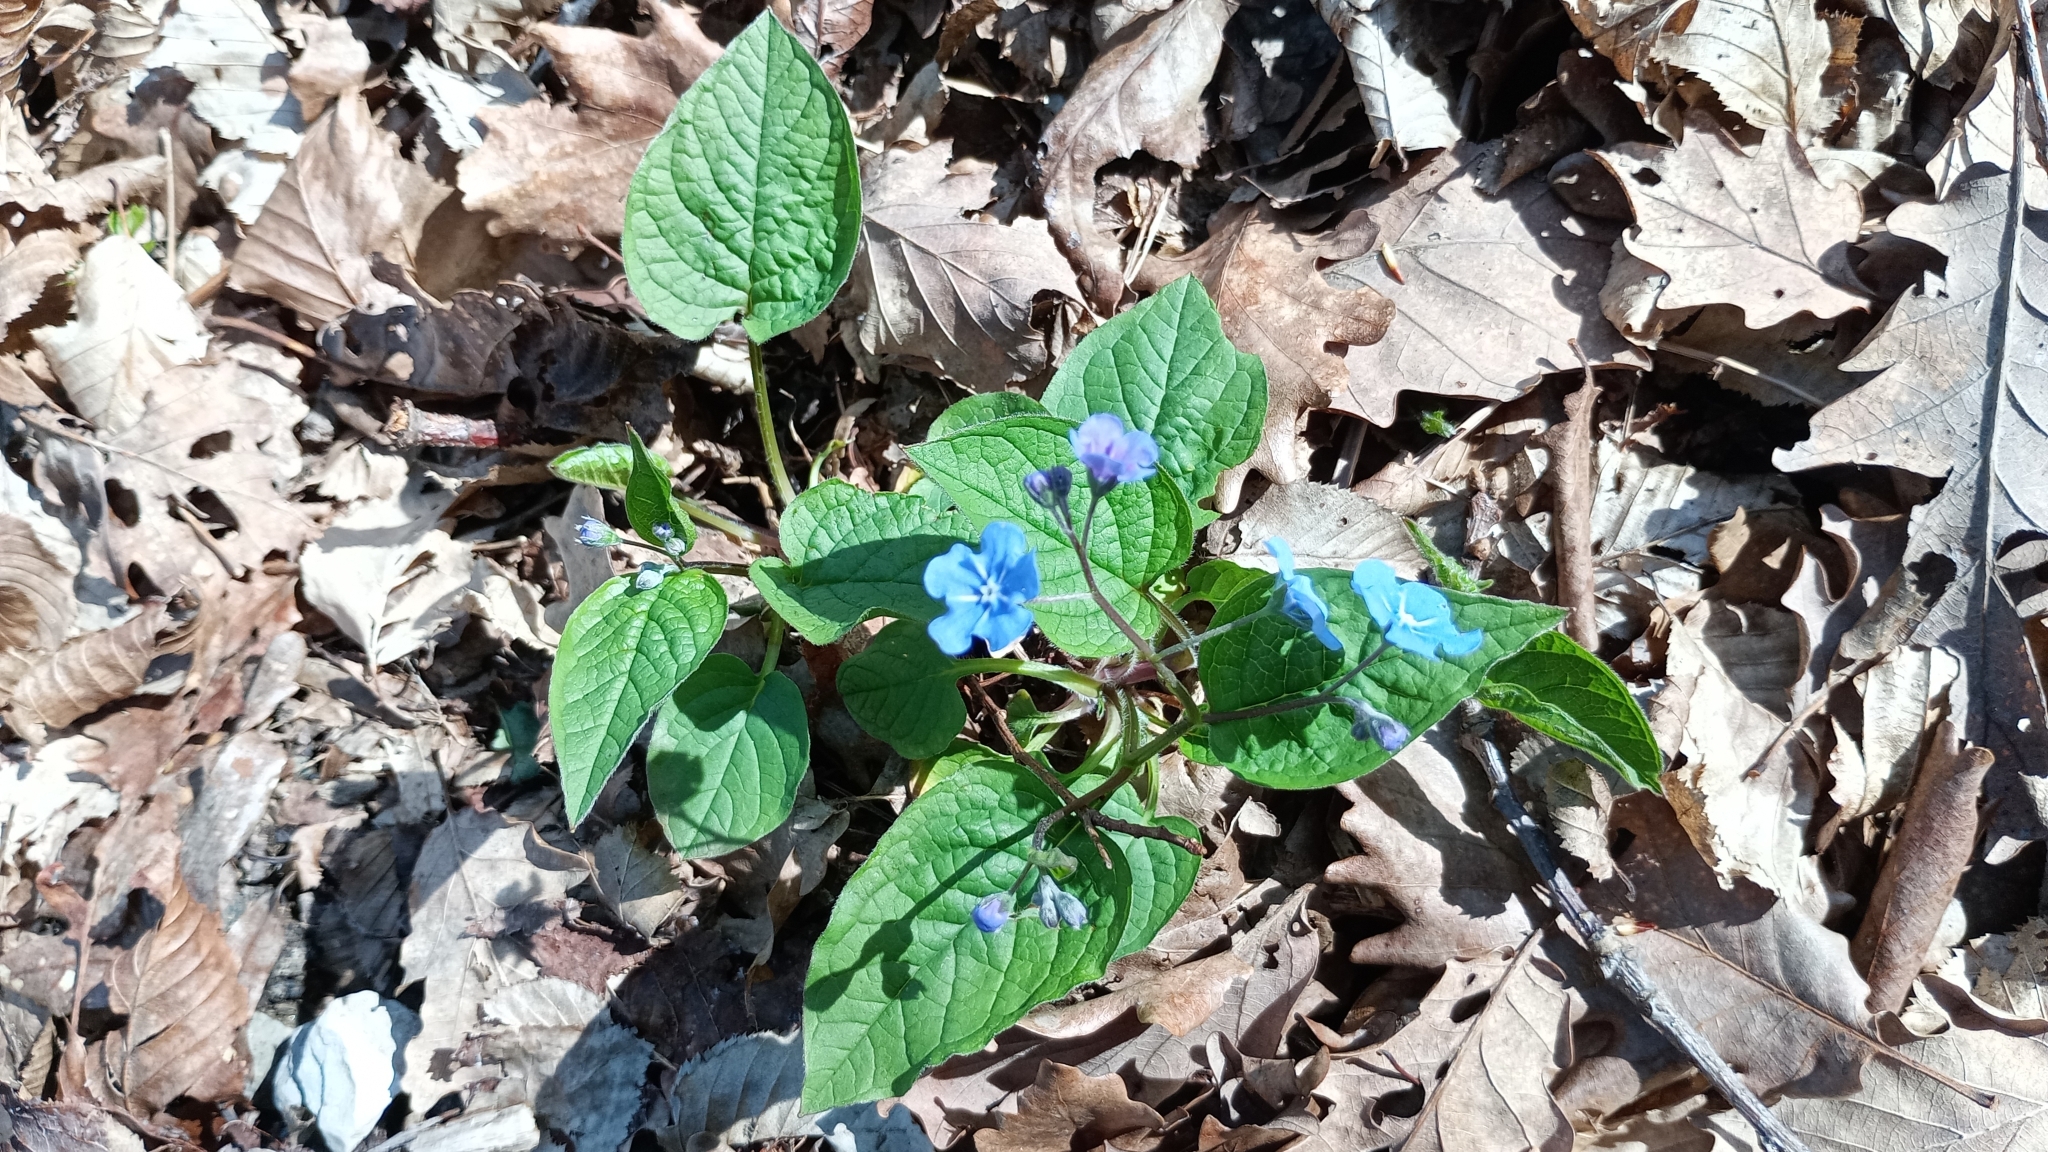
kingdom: Plantae
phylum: Tracheophyta
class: Magnoliopsida
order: Boraginales
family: Boraginaceae
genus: Omphalodes
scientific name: Omphalodes verna
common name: Blue-eyed-mary
